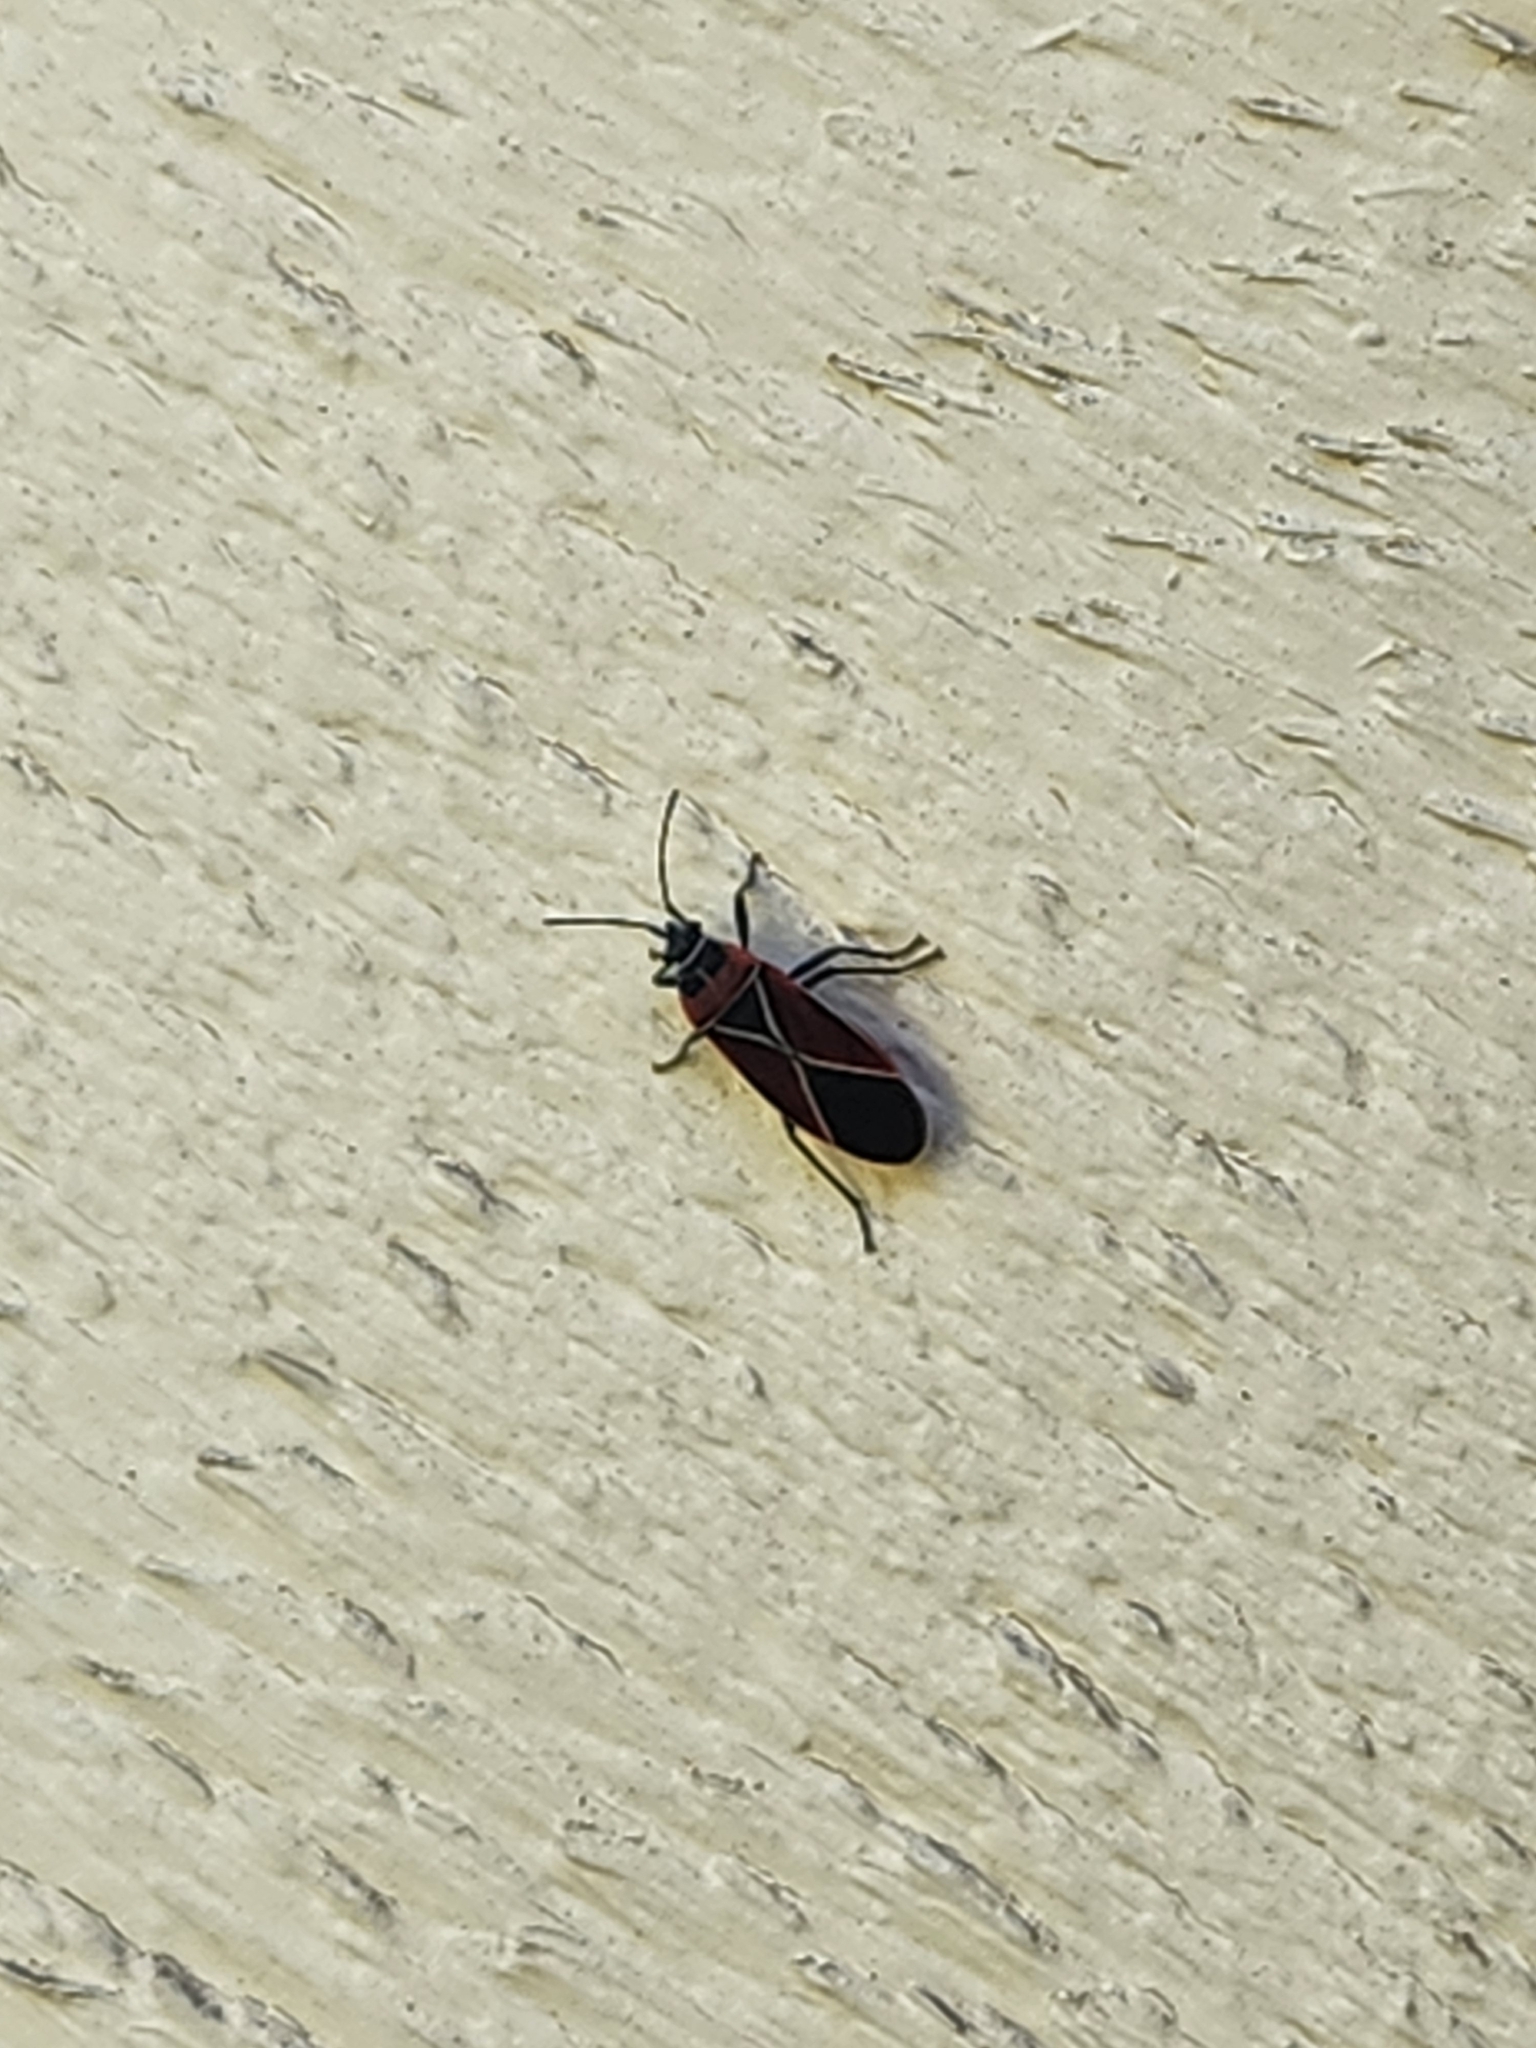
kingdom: Animalia
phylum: Arthropoda
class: Insecta
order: Hemiptera
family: Lygaeidae
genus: Neacoryphus
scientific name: Neacoryphus bicrucis
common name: Lygaeid bug
